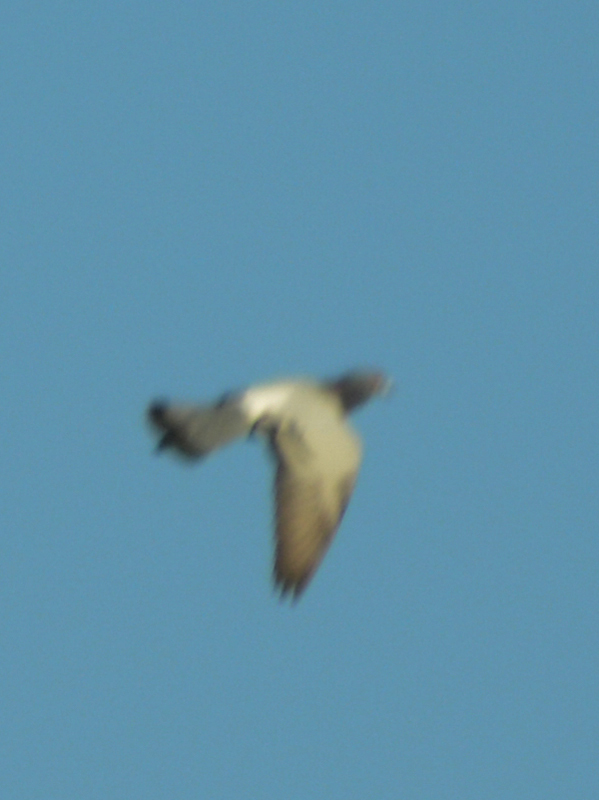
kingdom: Animalia
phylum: Chordata
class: Aves
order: Columbiformes
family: Columbidae
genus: Columba
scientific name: Columba livia
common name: Rock pigeon
